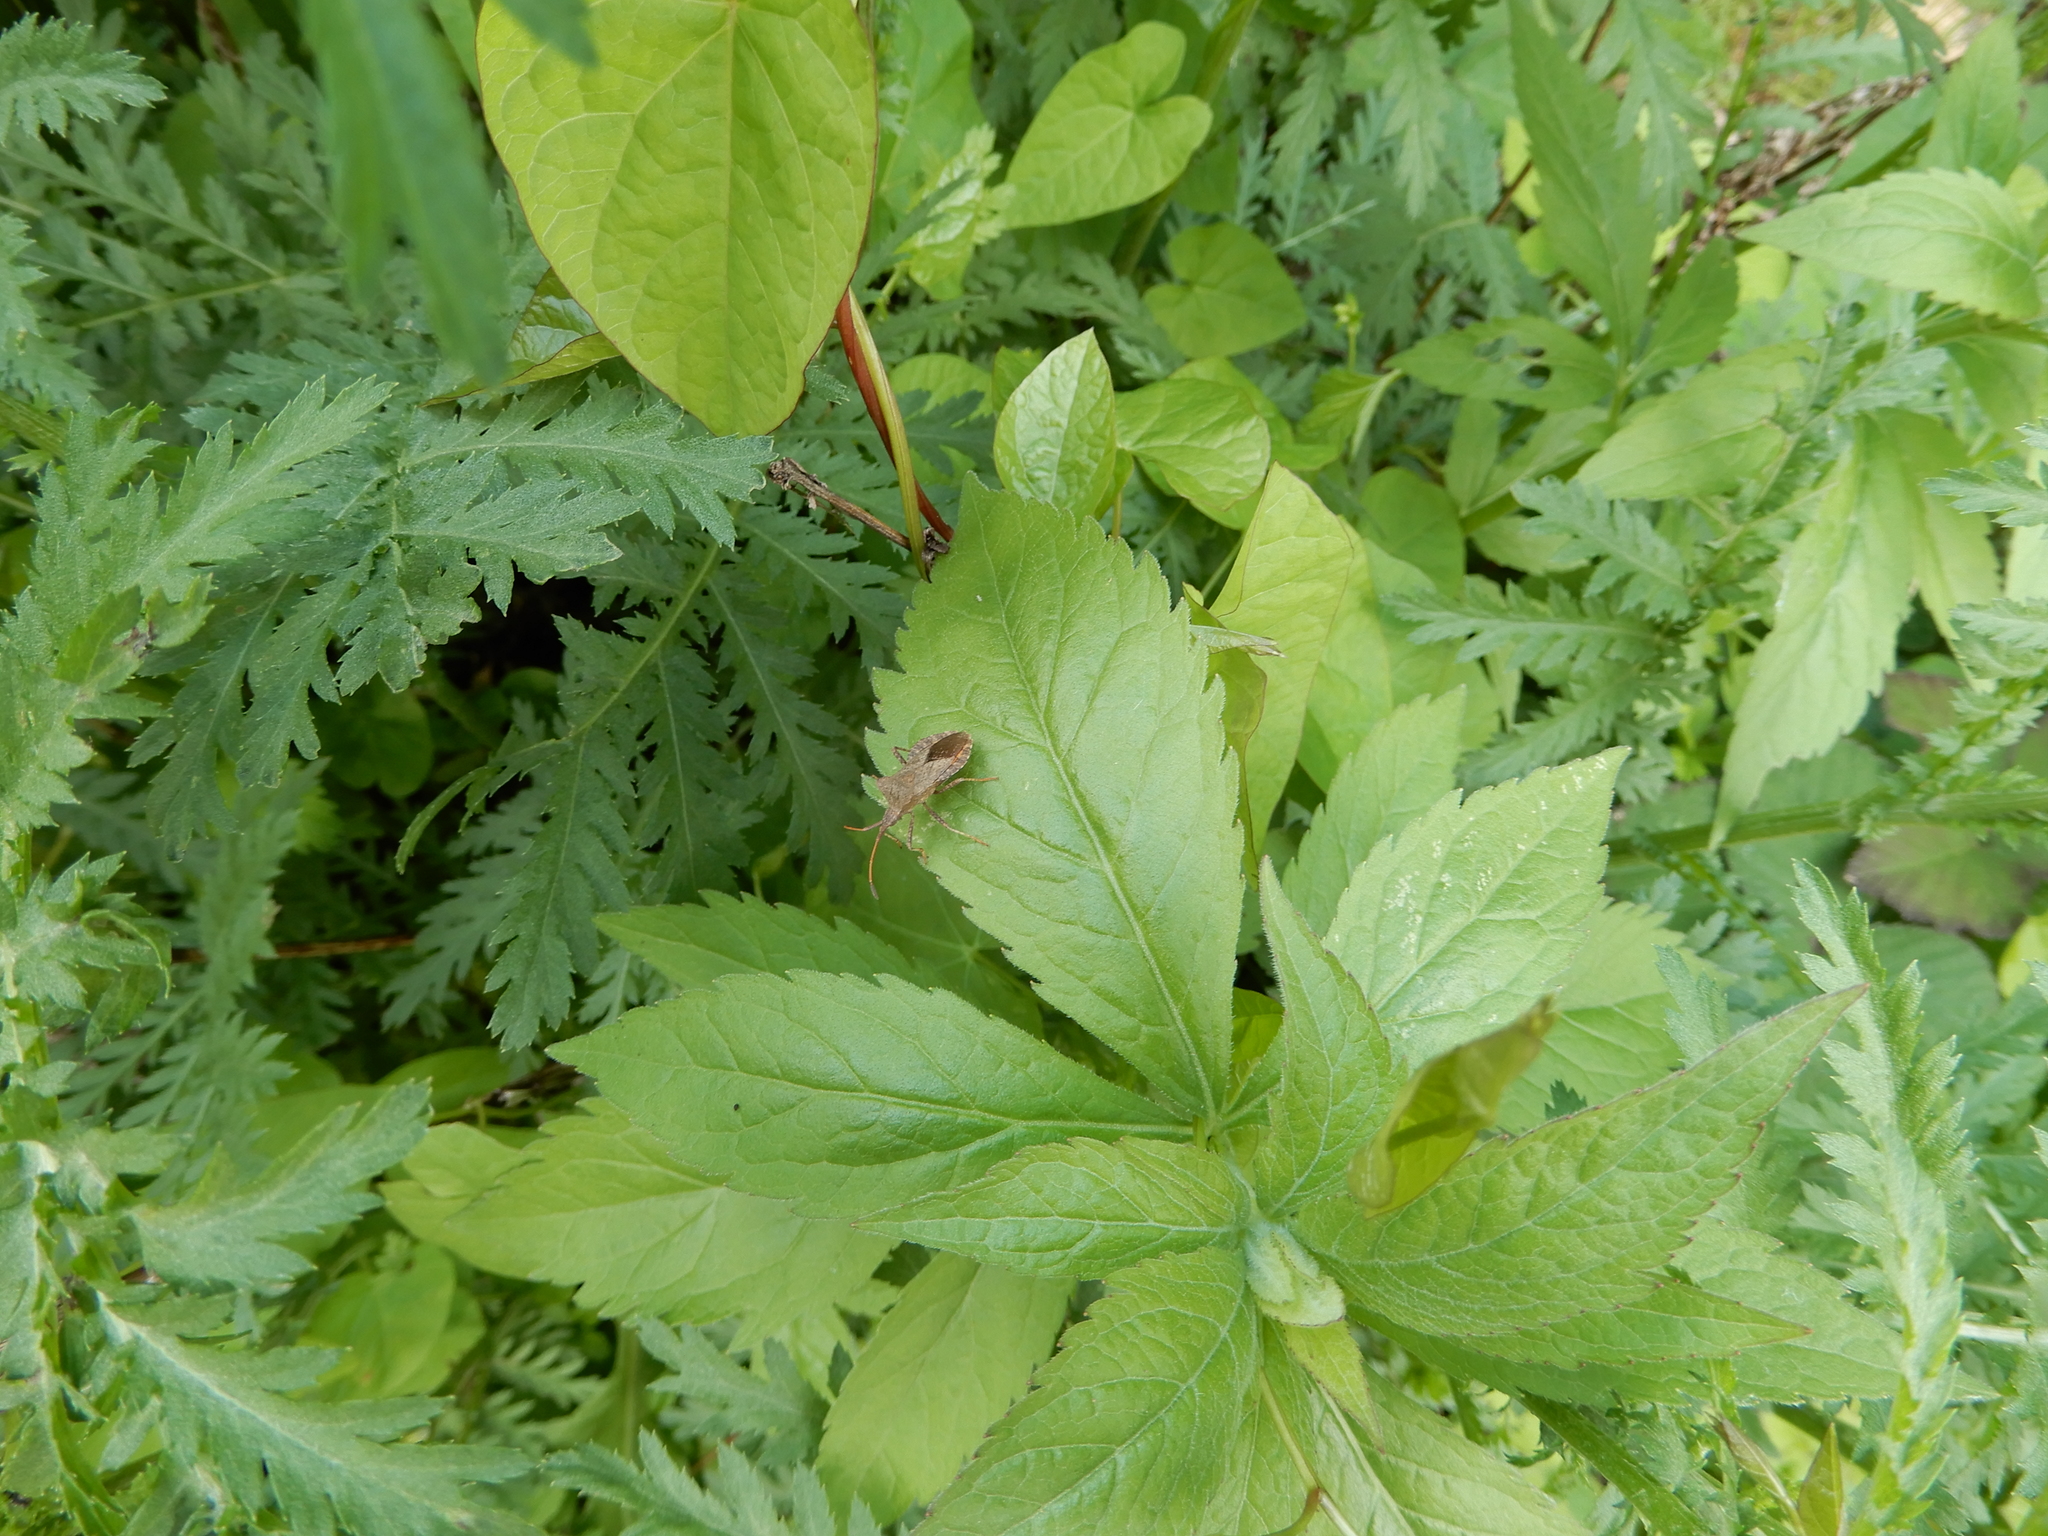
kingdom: Animalia
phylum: Arthropoda
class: Insecta
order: Hemiptera
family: Coreidae
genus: Coreus
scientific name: Coreus marginatus
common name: Dock bug
